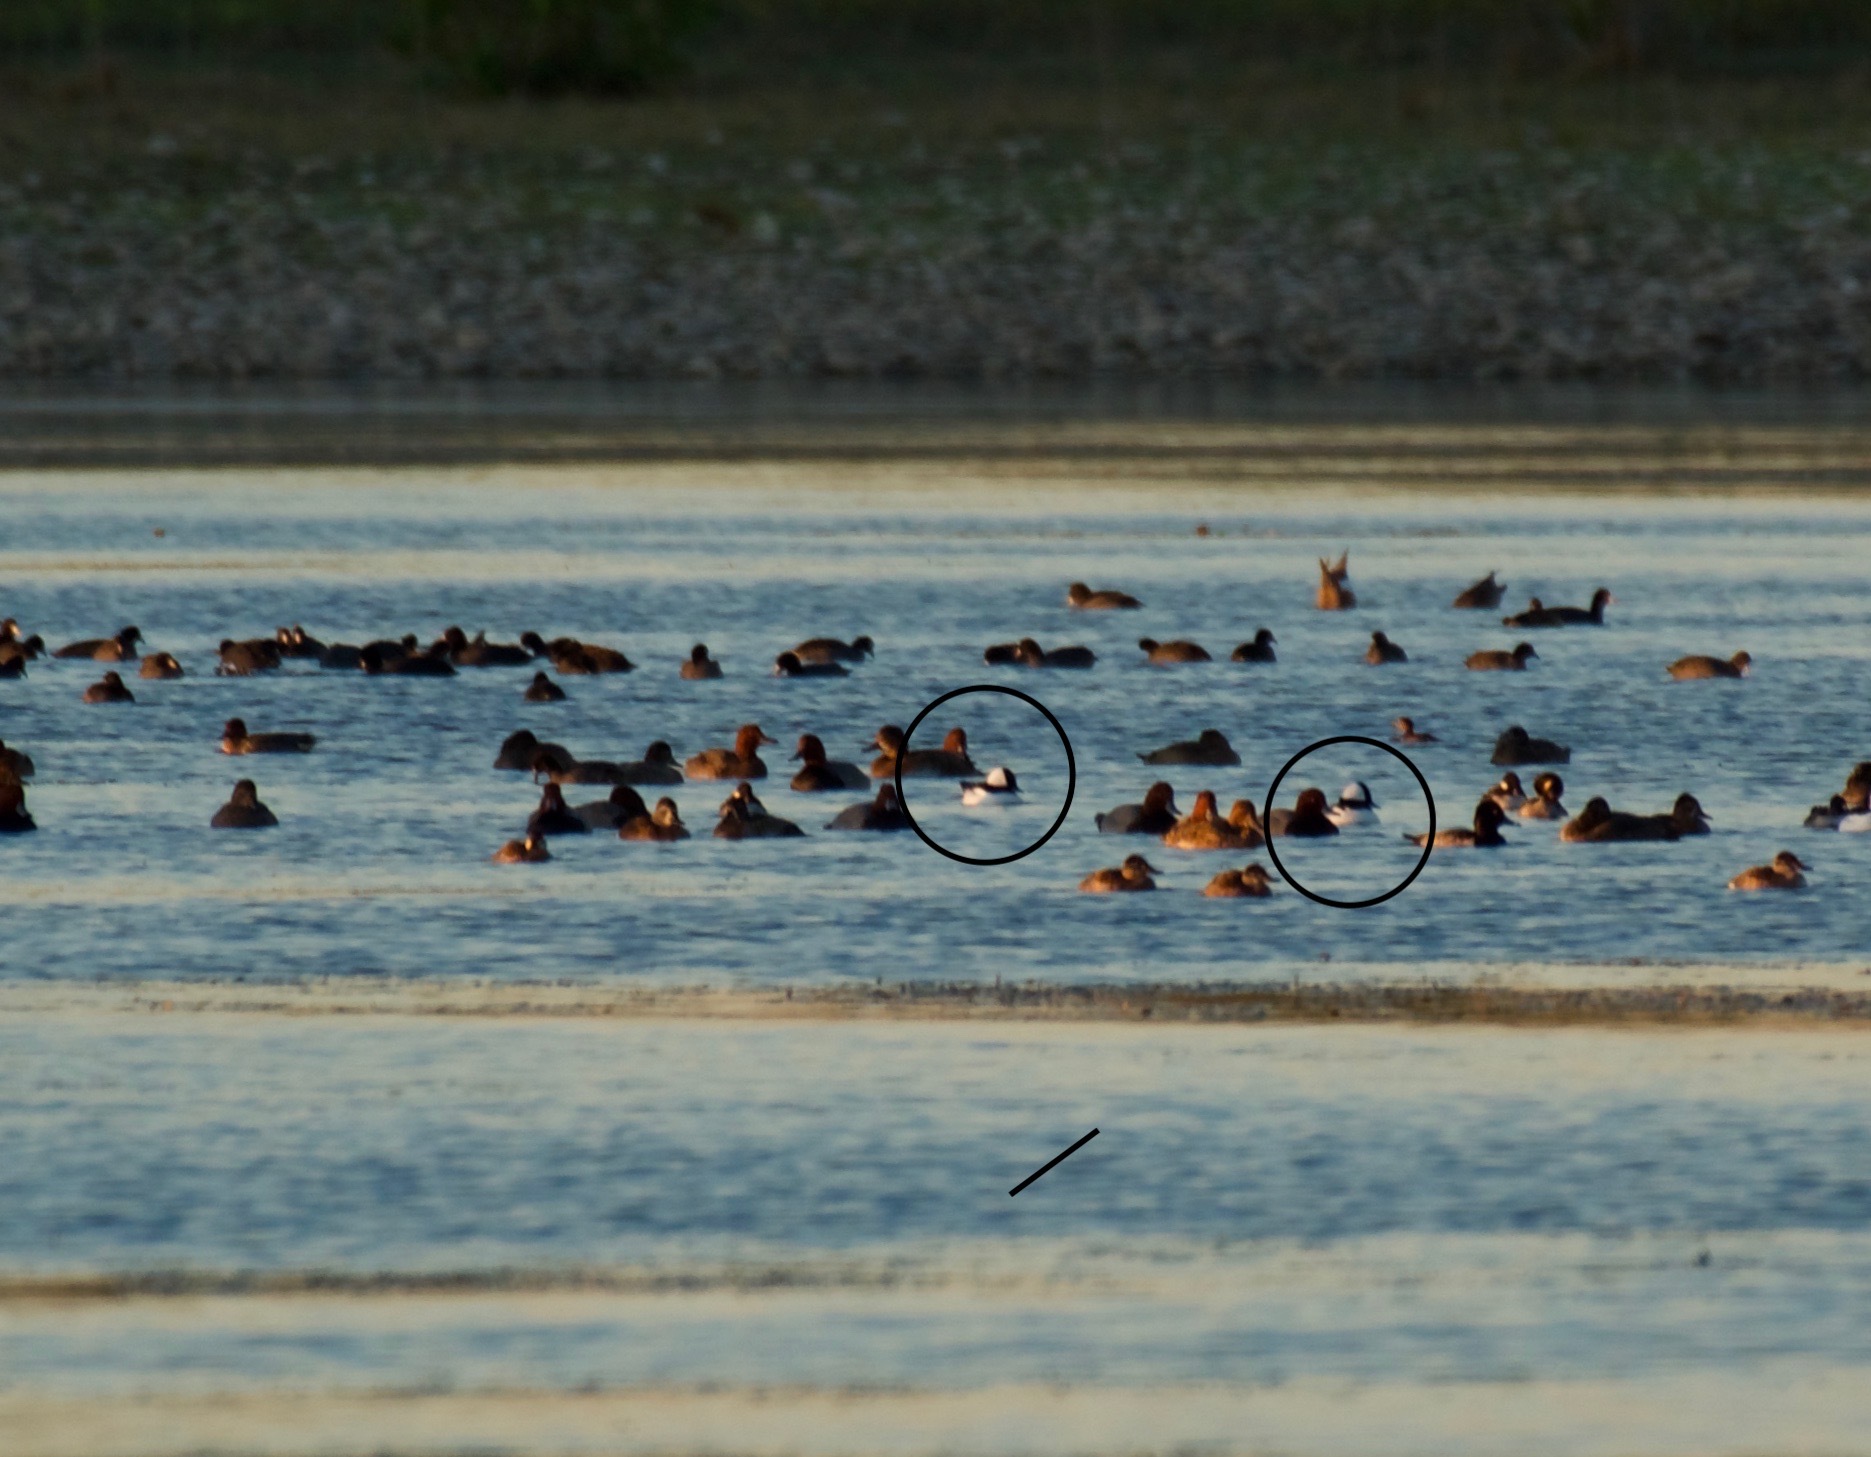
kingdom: Animalia
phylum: Chordata
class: Aves
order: Anseriformes
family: Anatidae
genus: Bucephala
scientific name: Bucephala albeola
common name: Bufflehead
